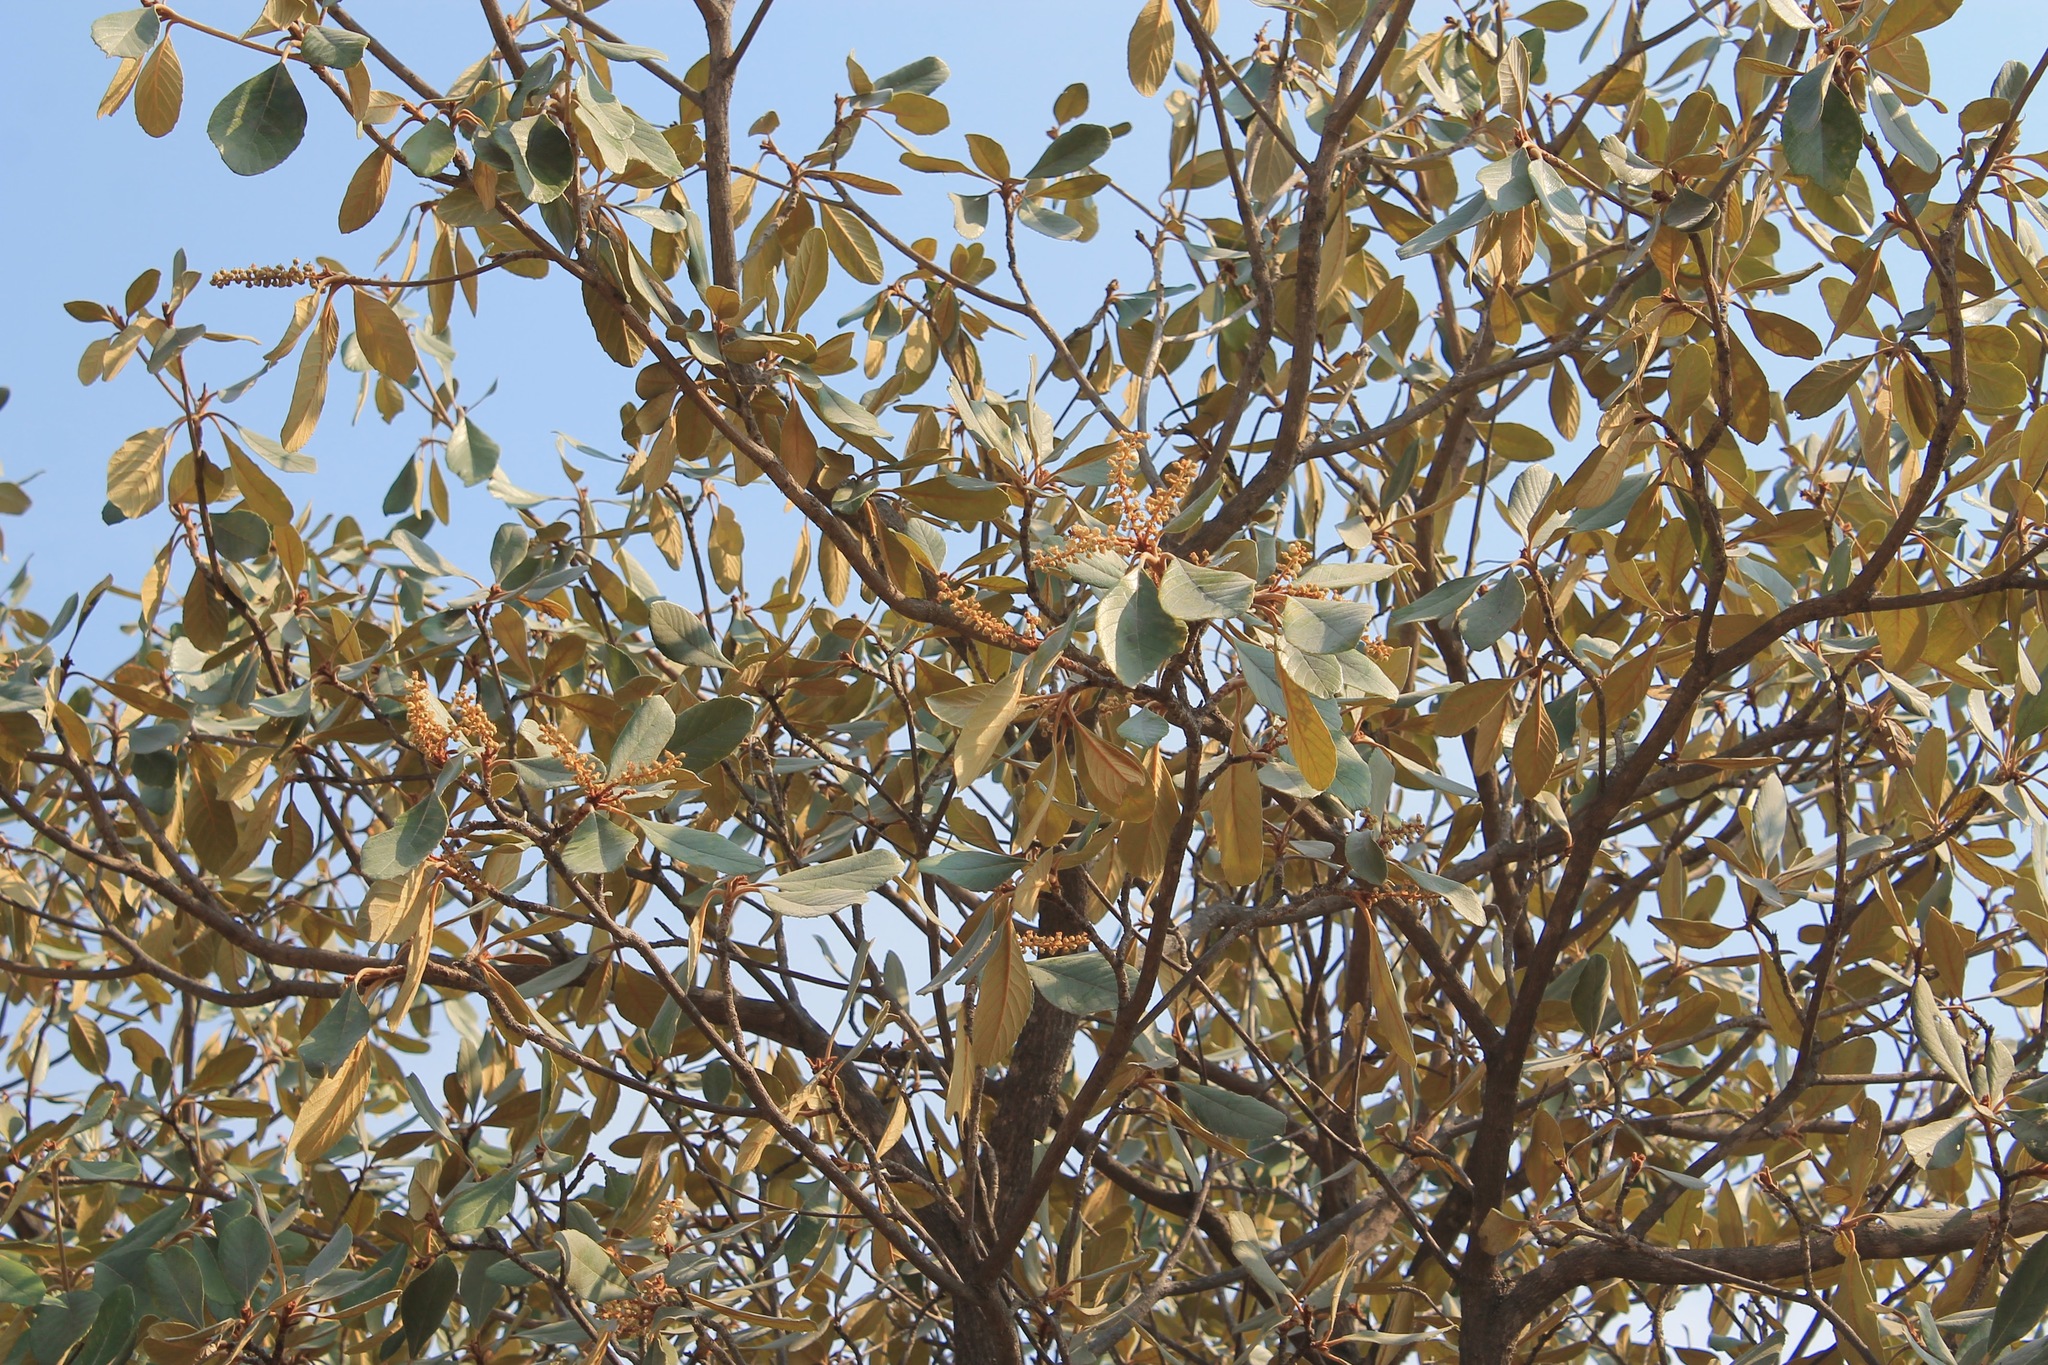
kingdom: Plantae
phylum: Tracheophyta
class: Magnoliopsida
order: Ericales
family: Clethraceae
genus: Clethra
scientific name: Clethra rosei
